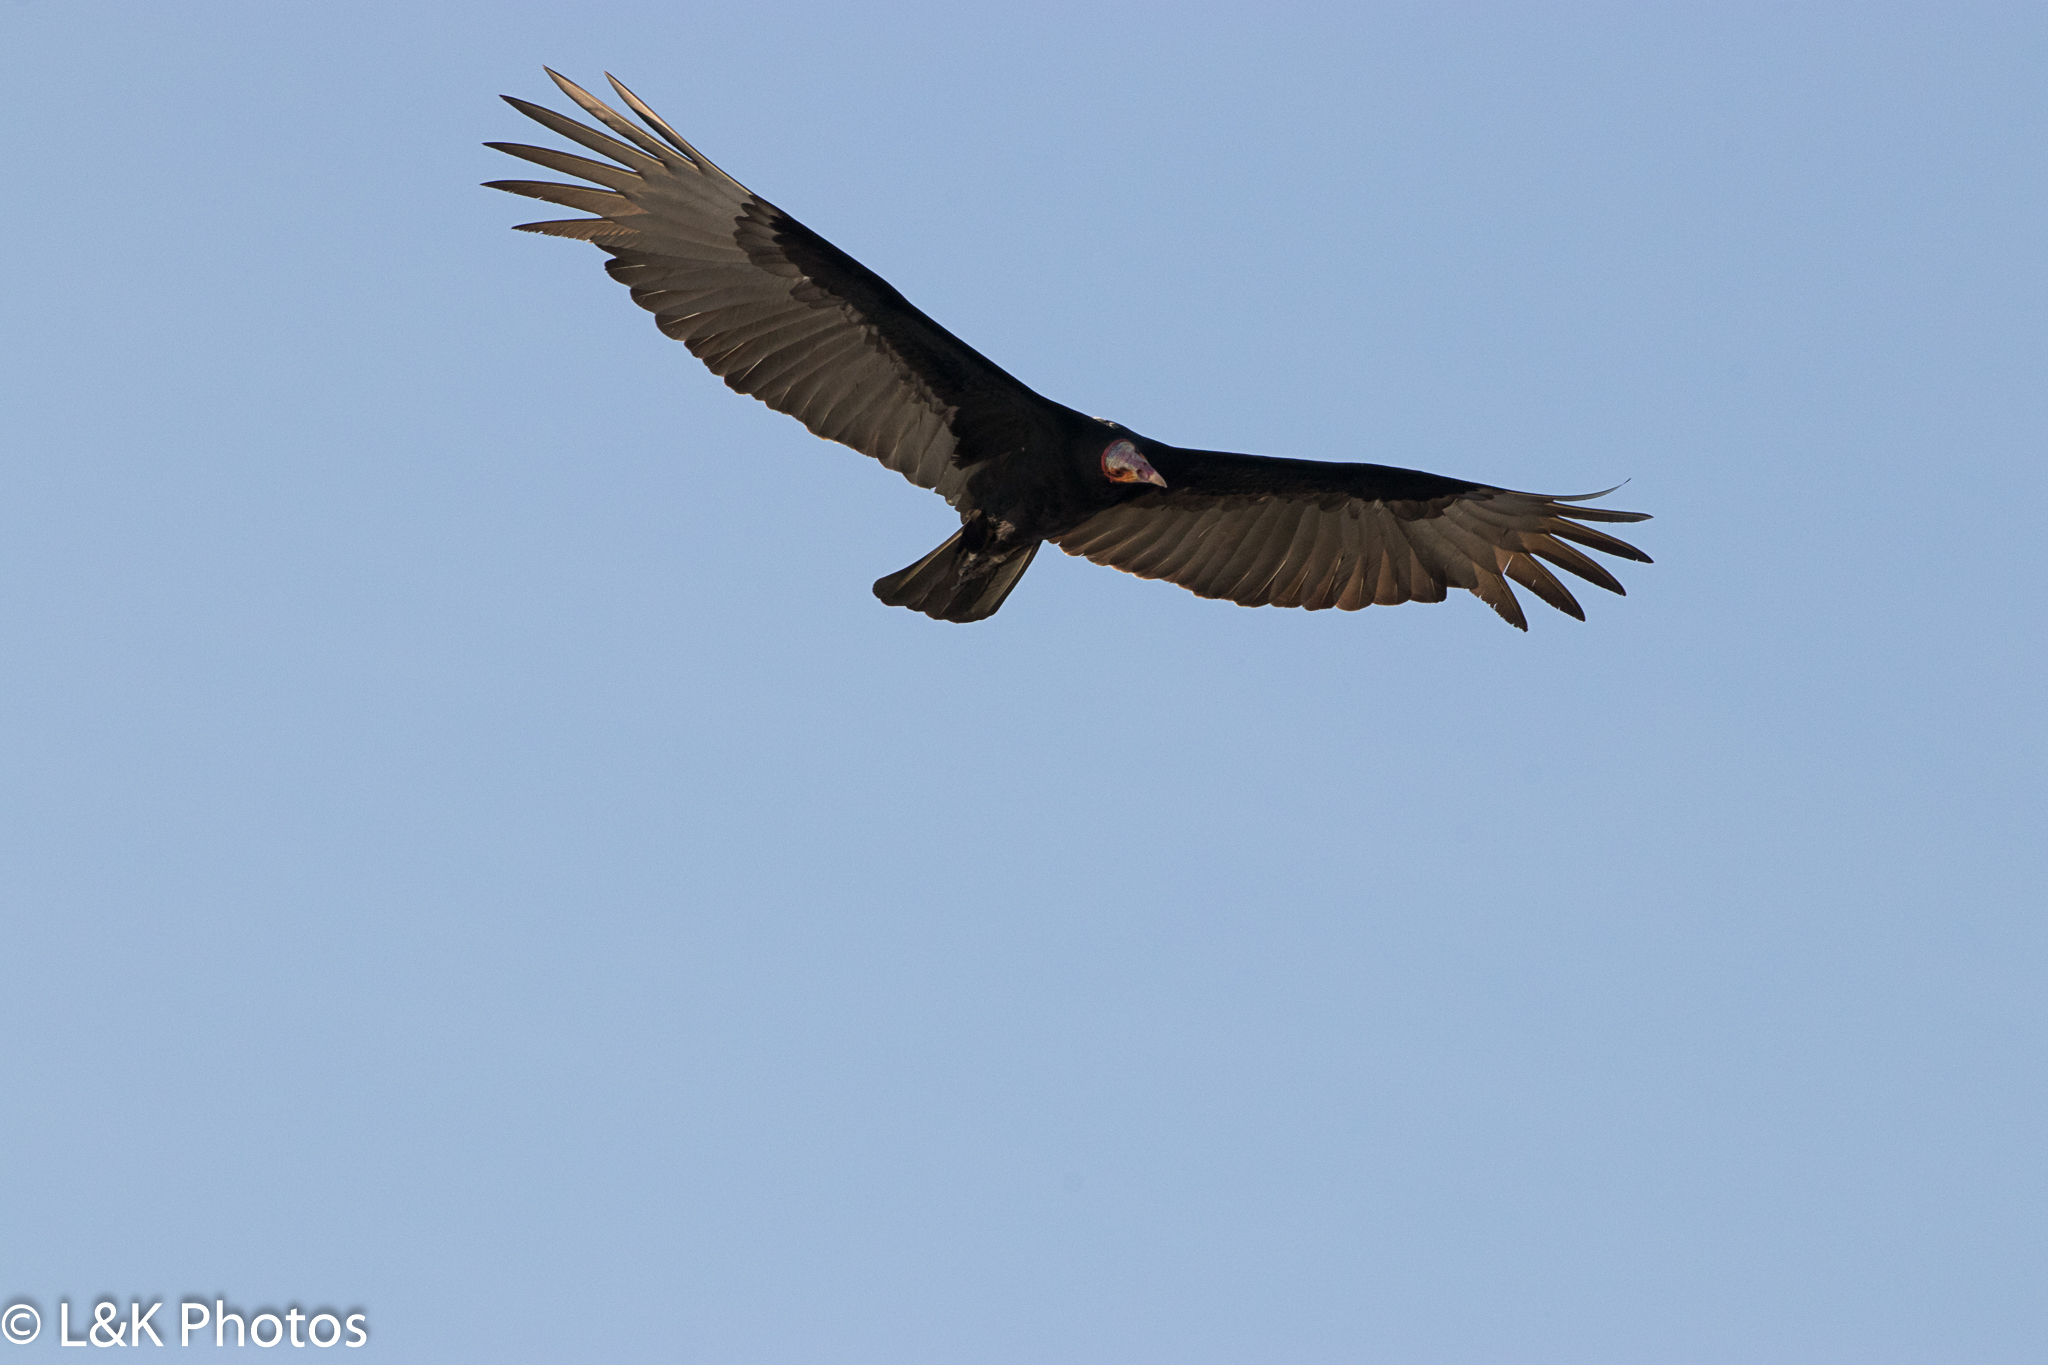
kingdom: Animalia
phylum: Chordata
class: Aves
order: Accipitriformes
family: Cathartidae
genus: Cathartes
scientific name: Cathartes burrovianus
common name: Lesser yellow-headed vulture
